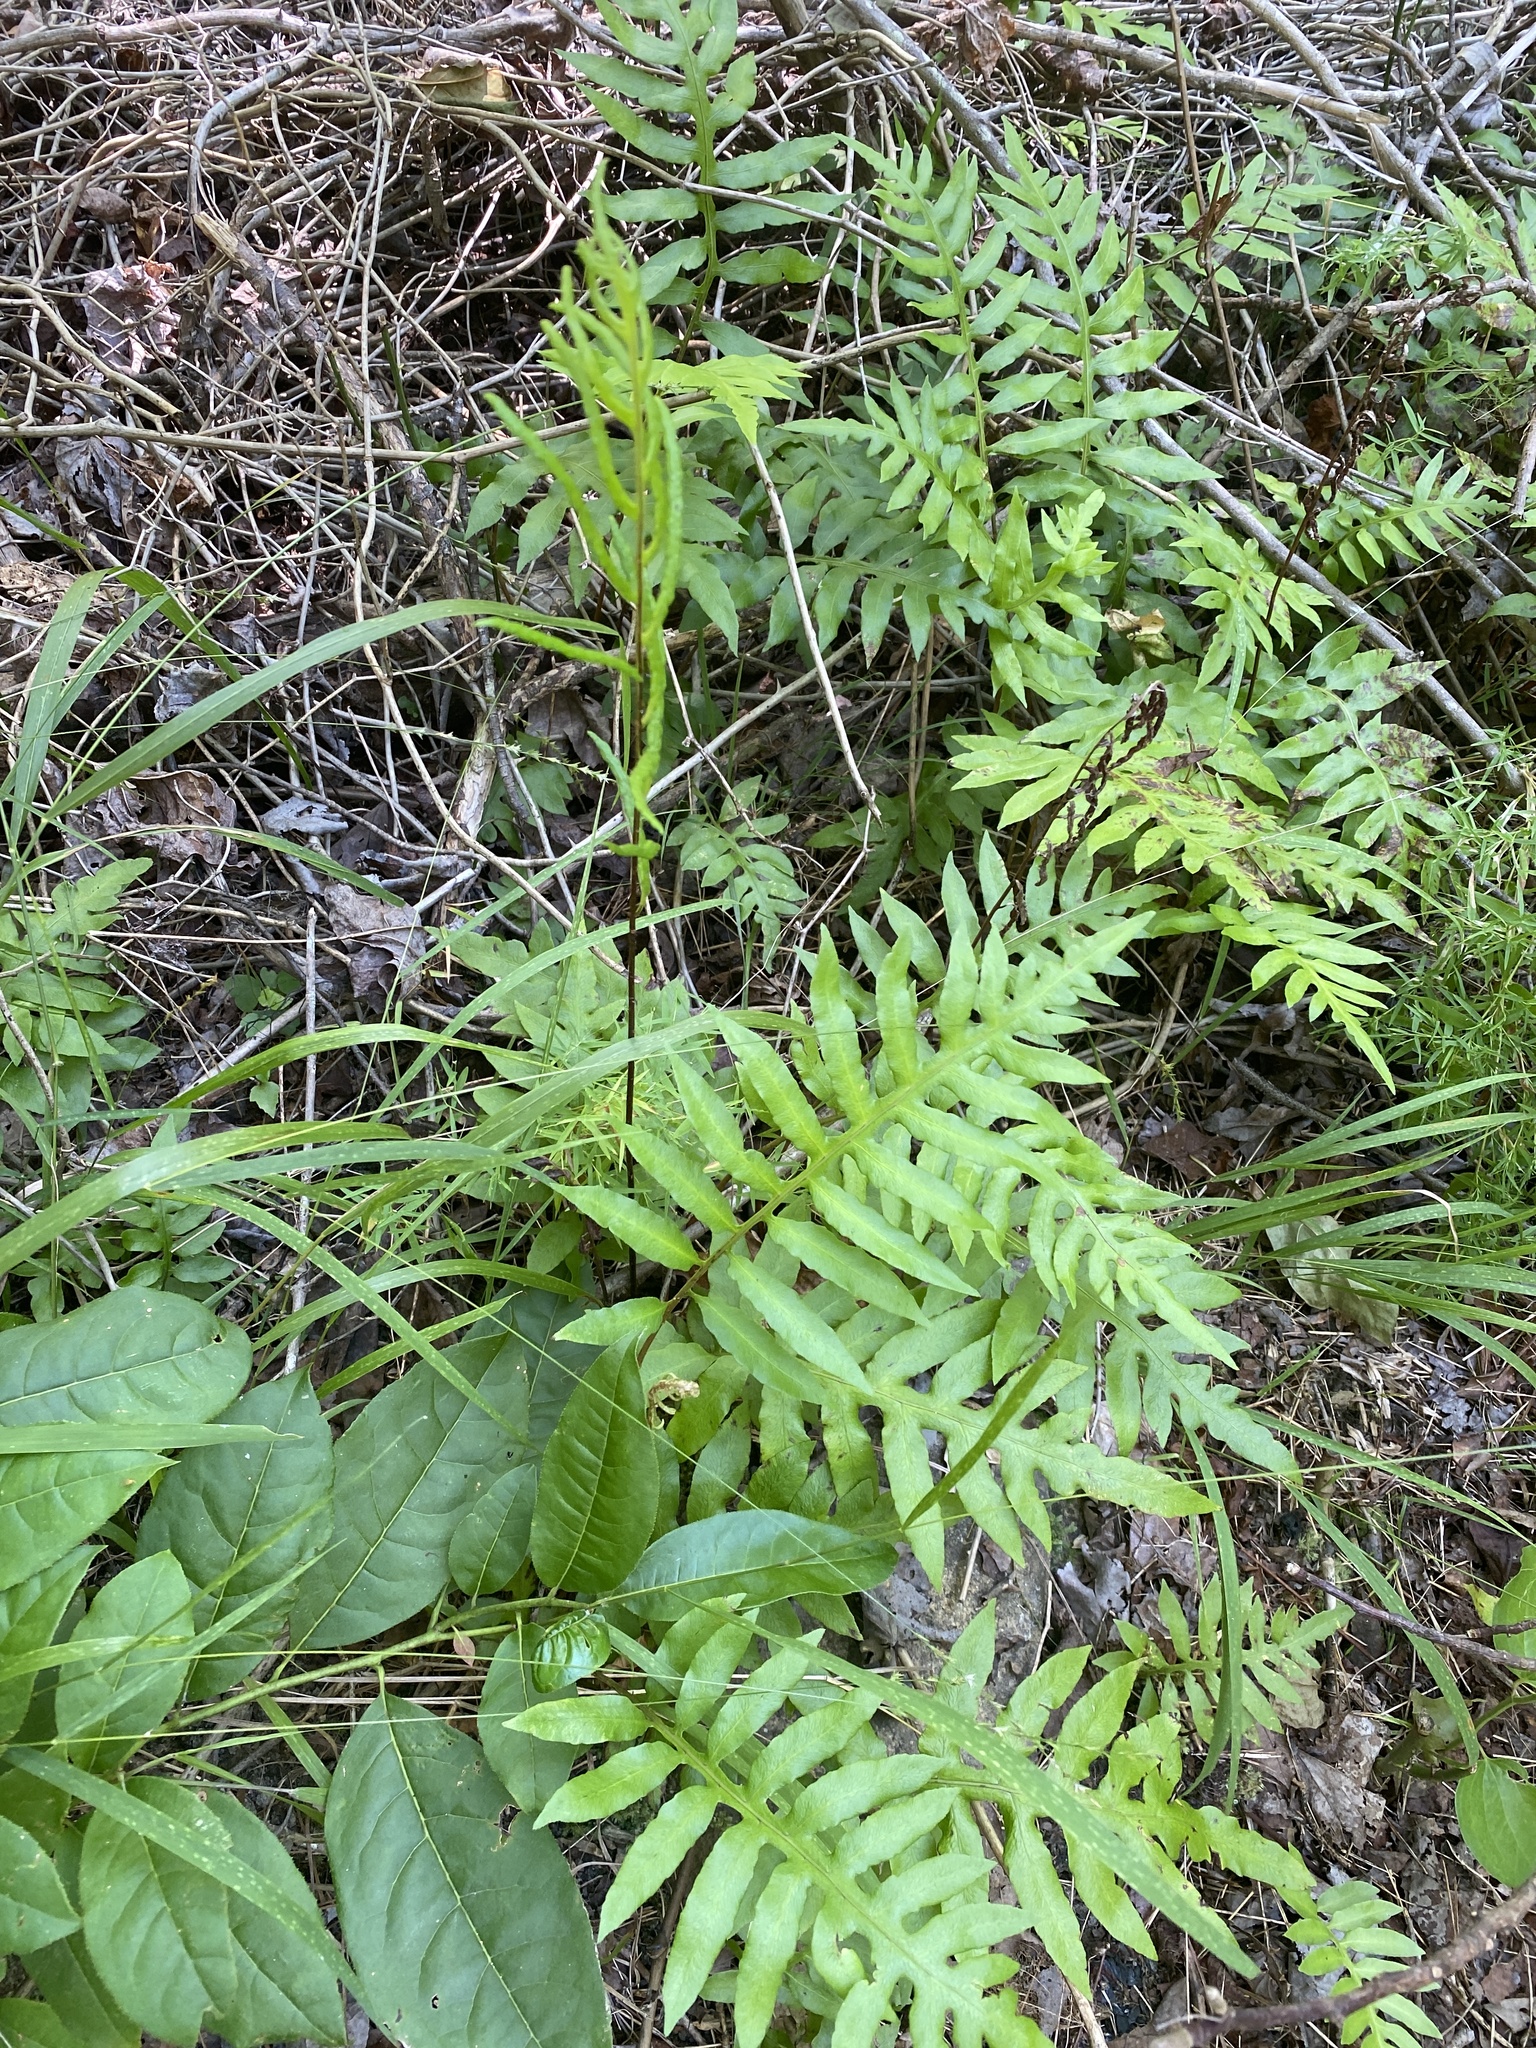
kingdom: Plantae
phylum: Tracheophyta
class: Polypodiopsida
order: Polypodiales
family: Blechnaceae
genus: Lorinseria
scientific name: Lorinseria areolata
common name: Dwarf chain fern
